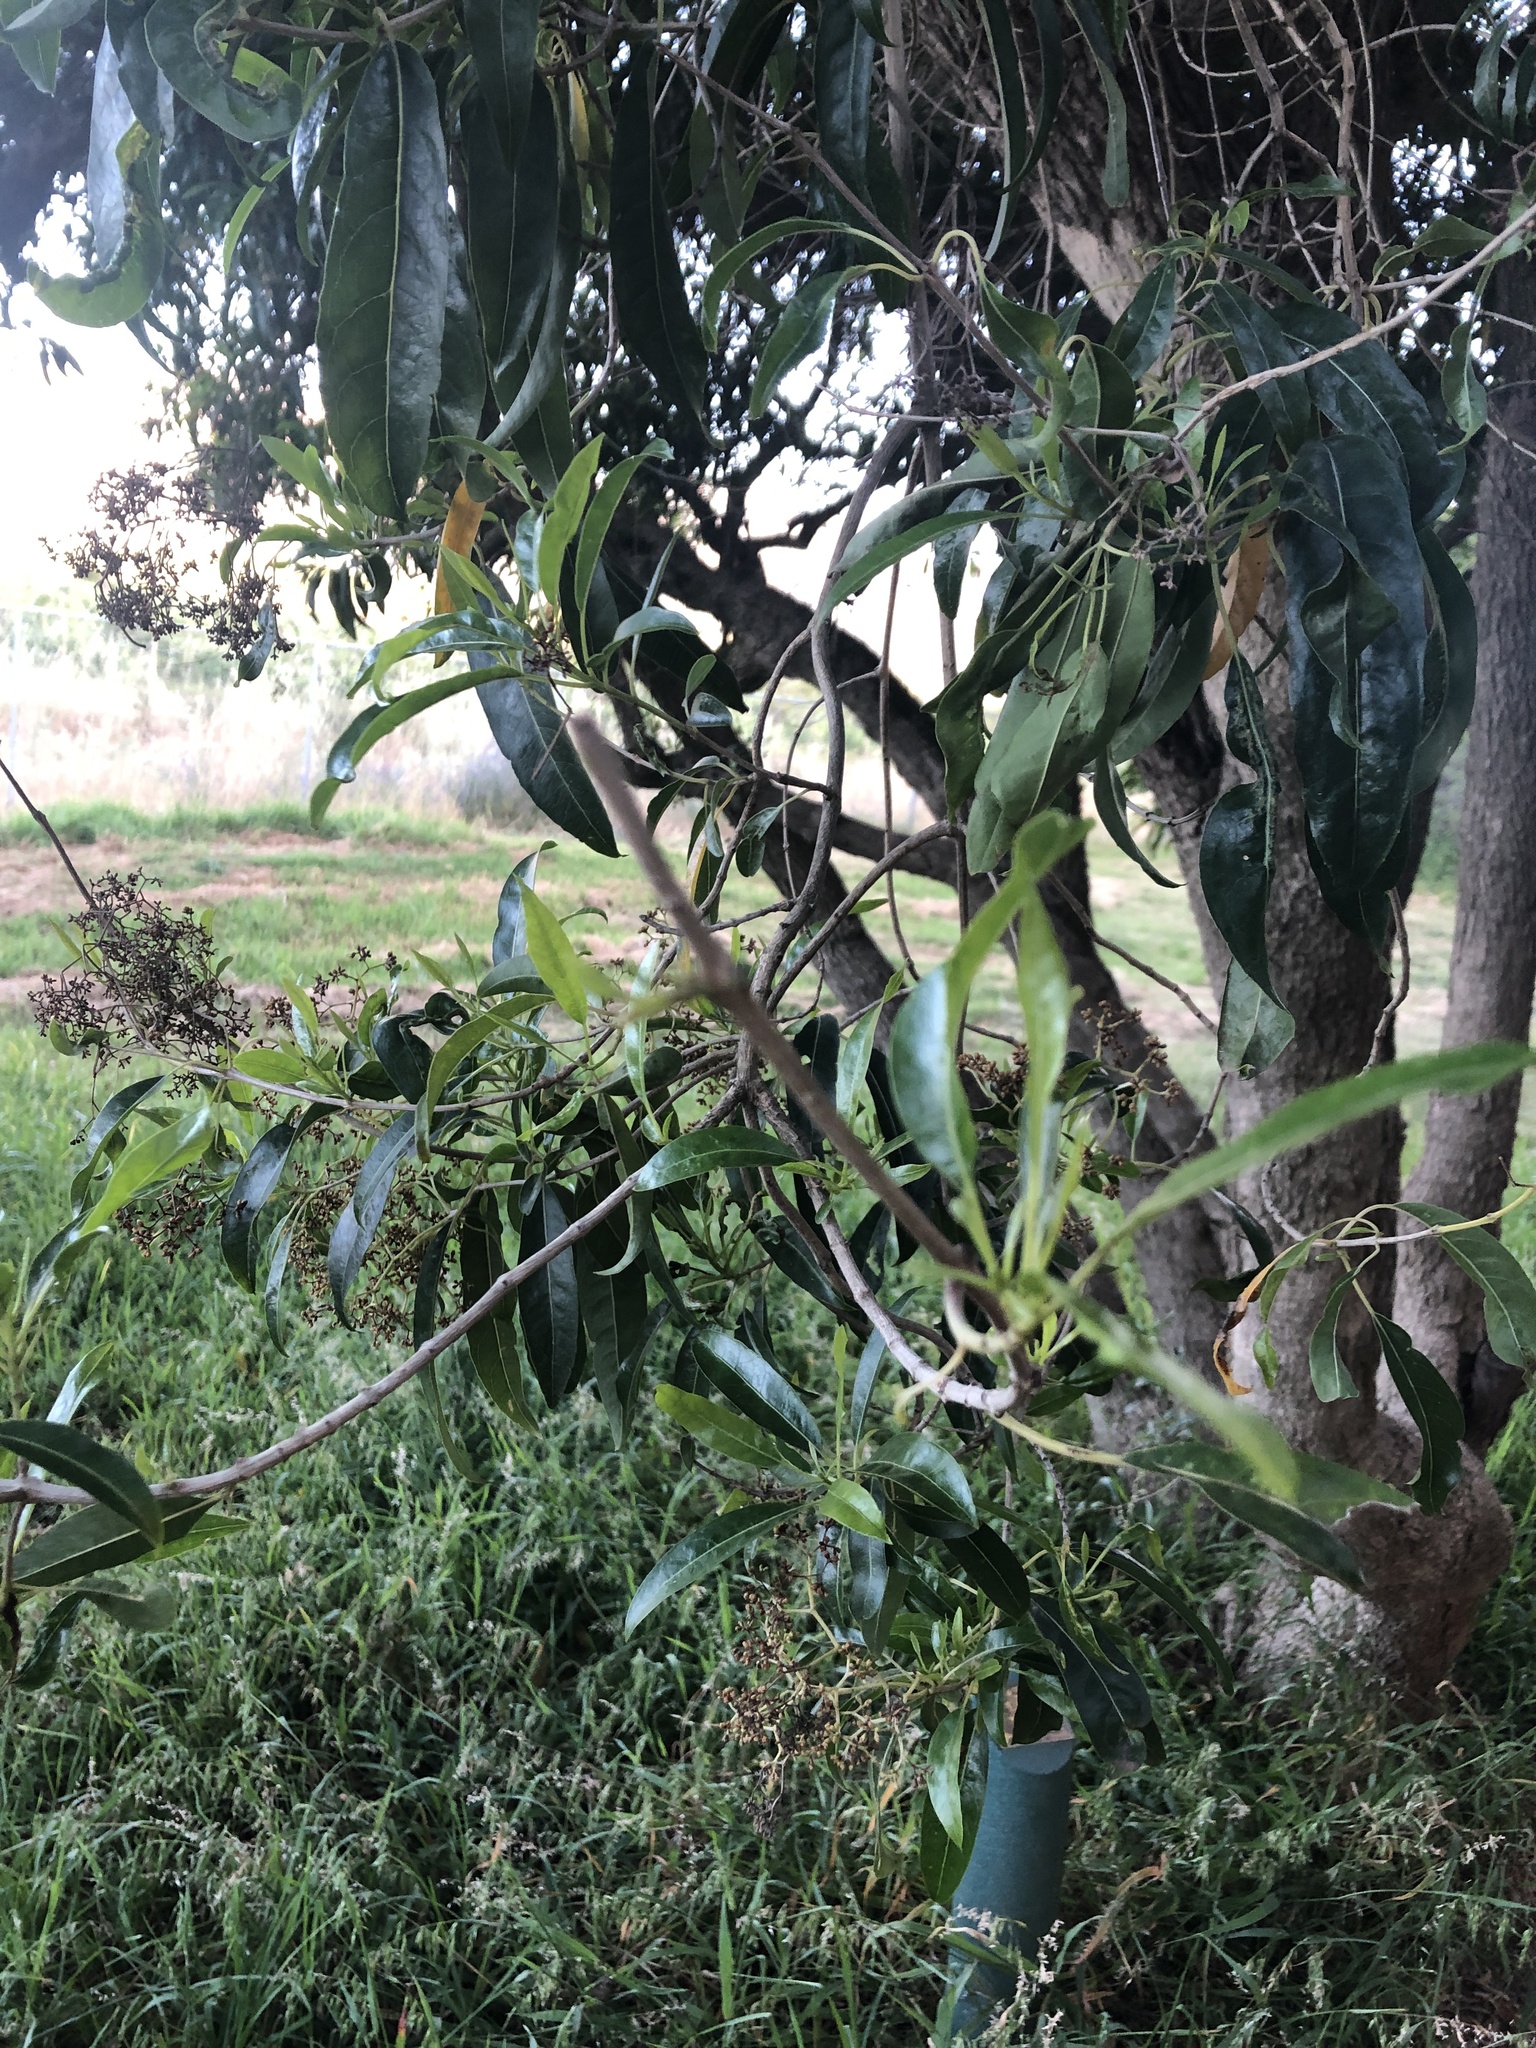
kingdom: Plantae
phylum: Tracheophyta
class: Magnoliopsida
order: Lamiales
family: Stilbaceae
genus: Nuxia
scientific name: Nuxia floribunda
